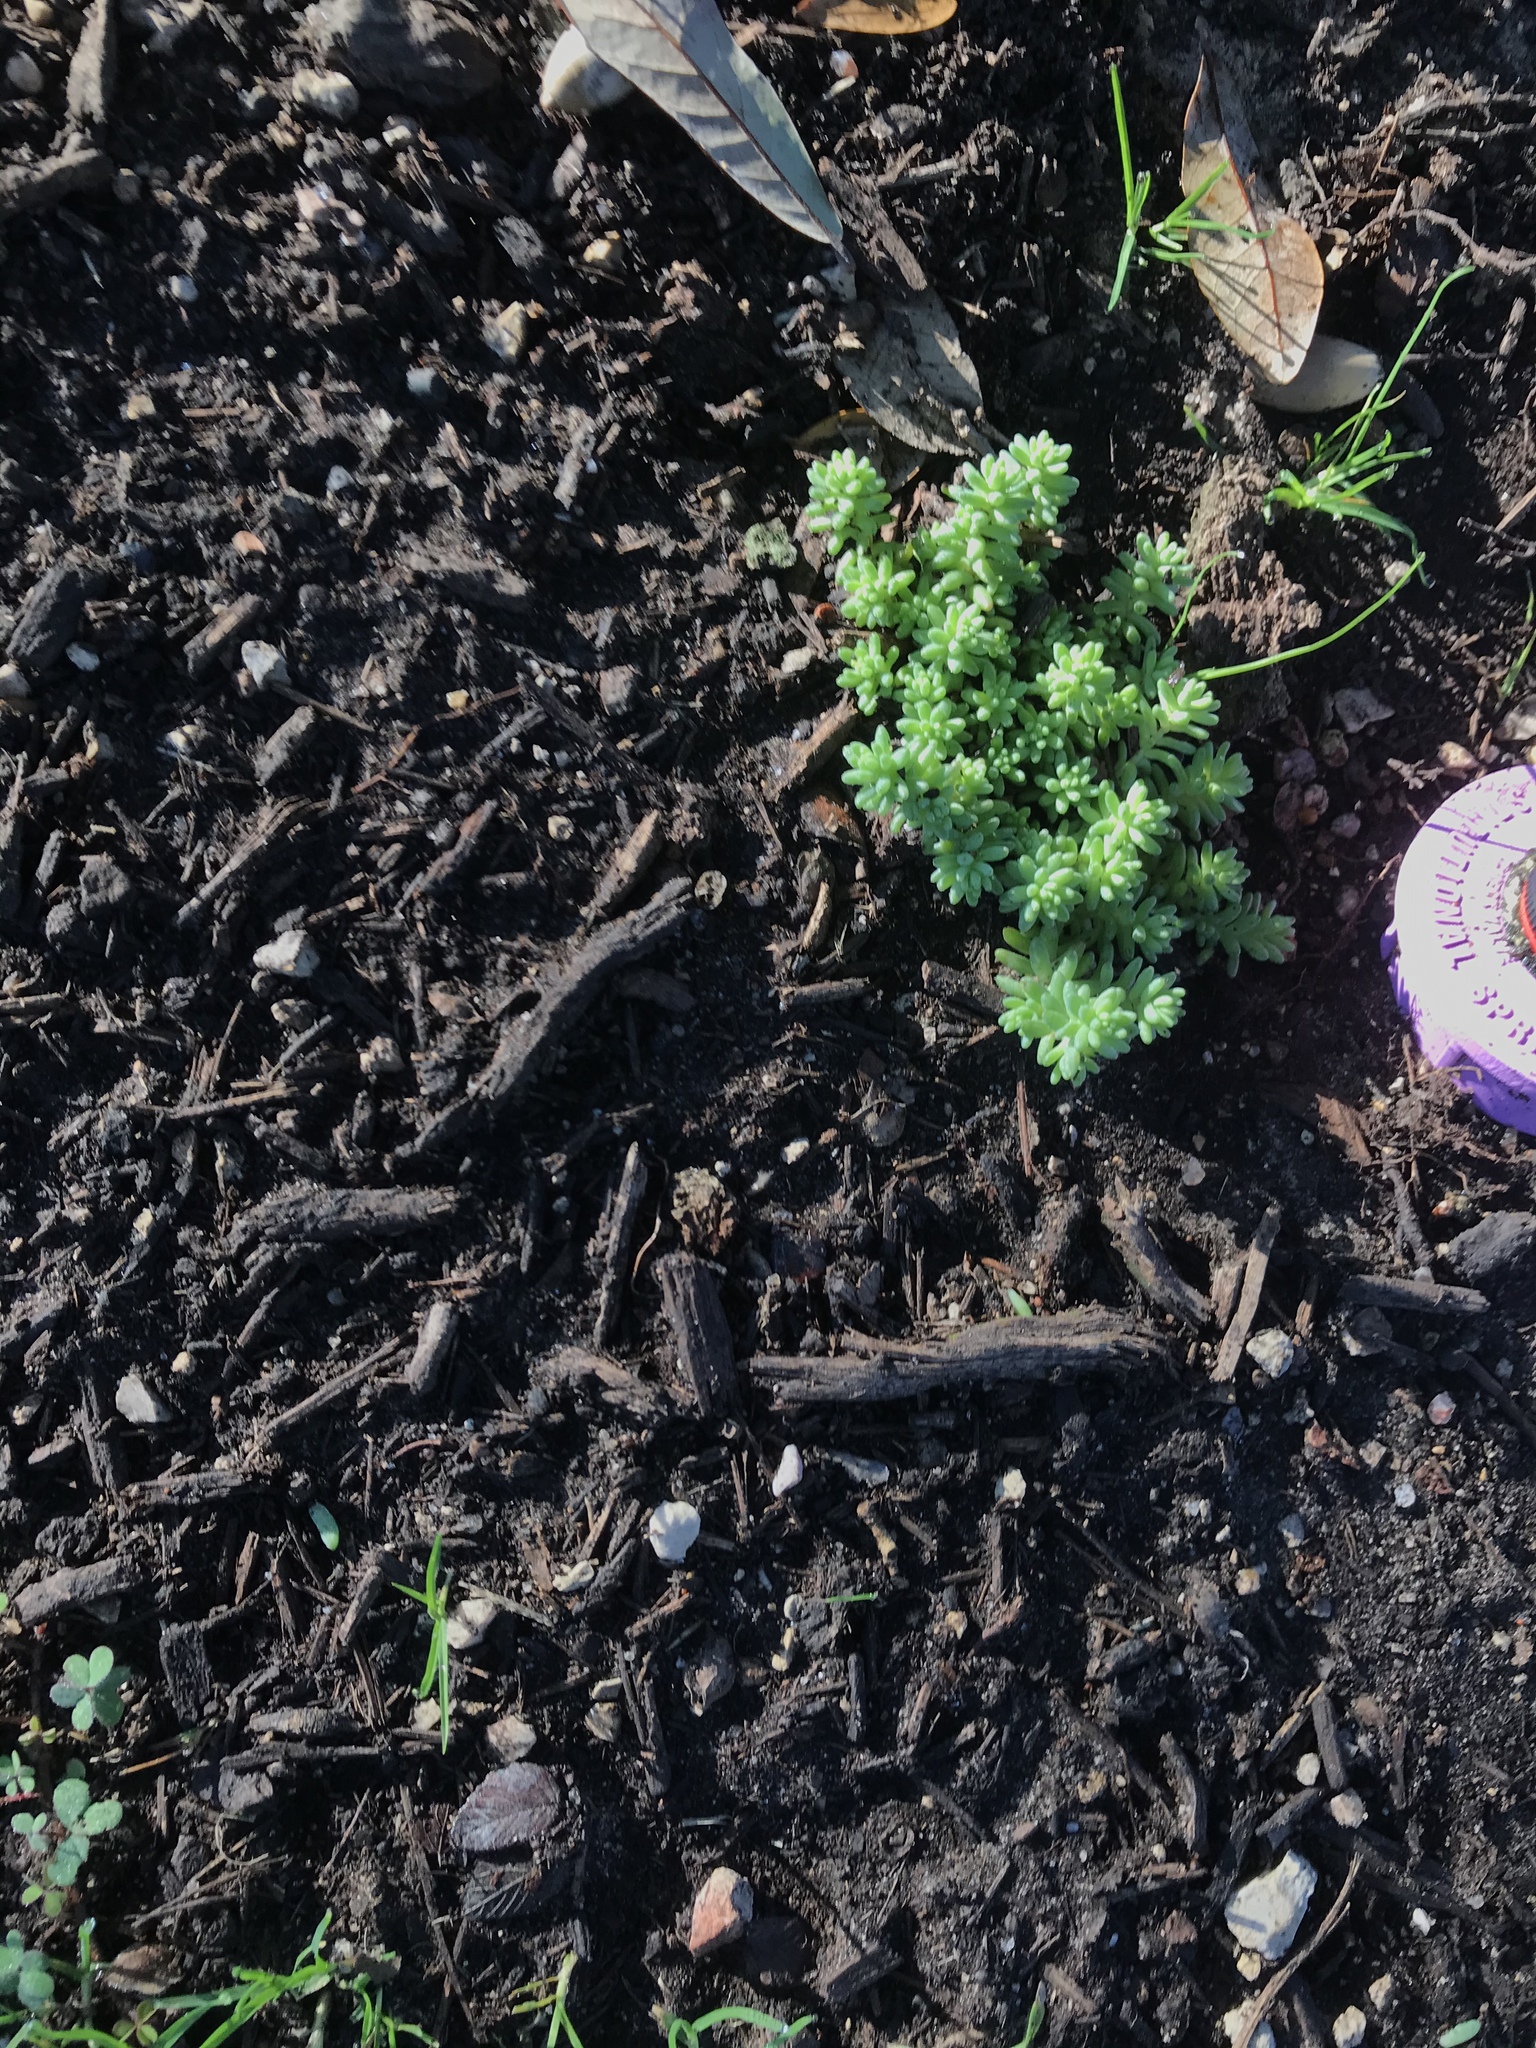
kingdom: Plantae
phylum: Tracheophyta
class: Magnoliopsida
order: Saxifragales
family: Crassulaceae
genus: Sedum
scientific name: Sedum nuttallii
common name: Yellow stonecrop
